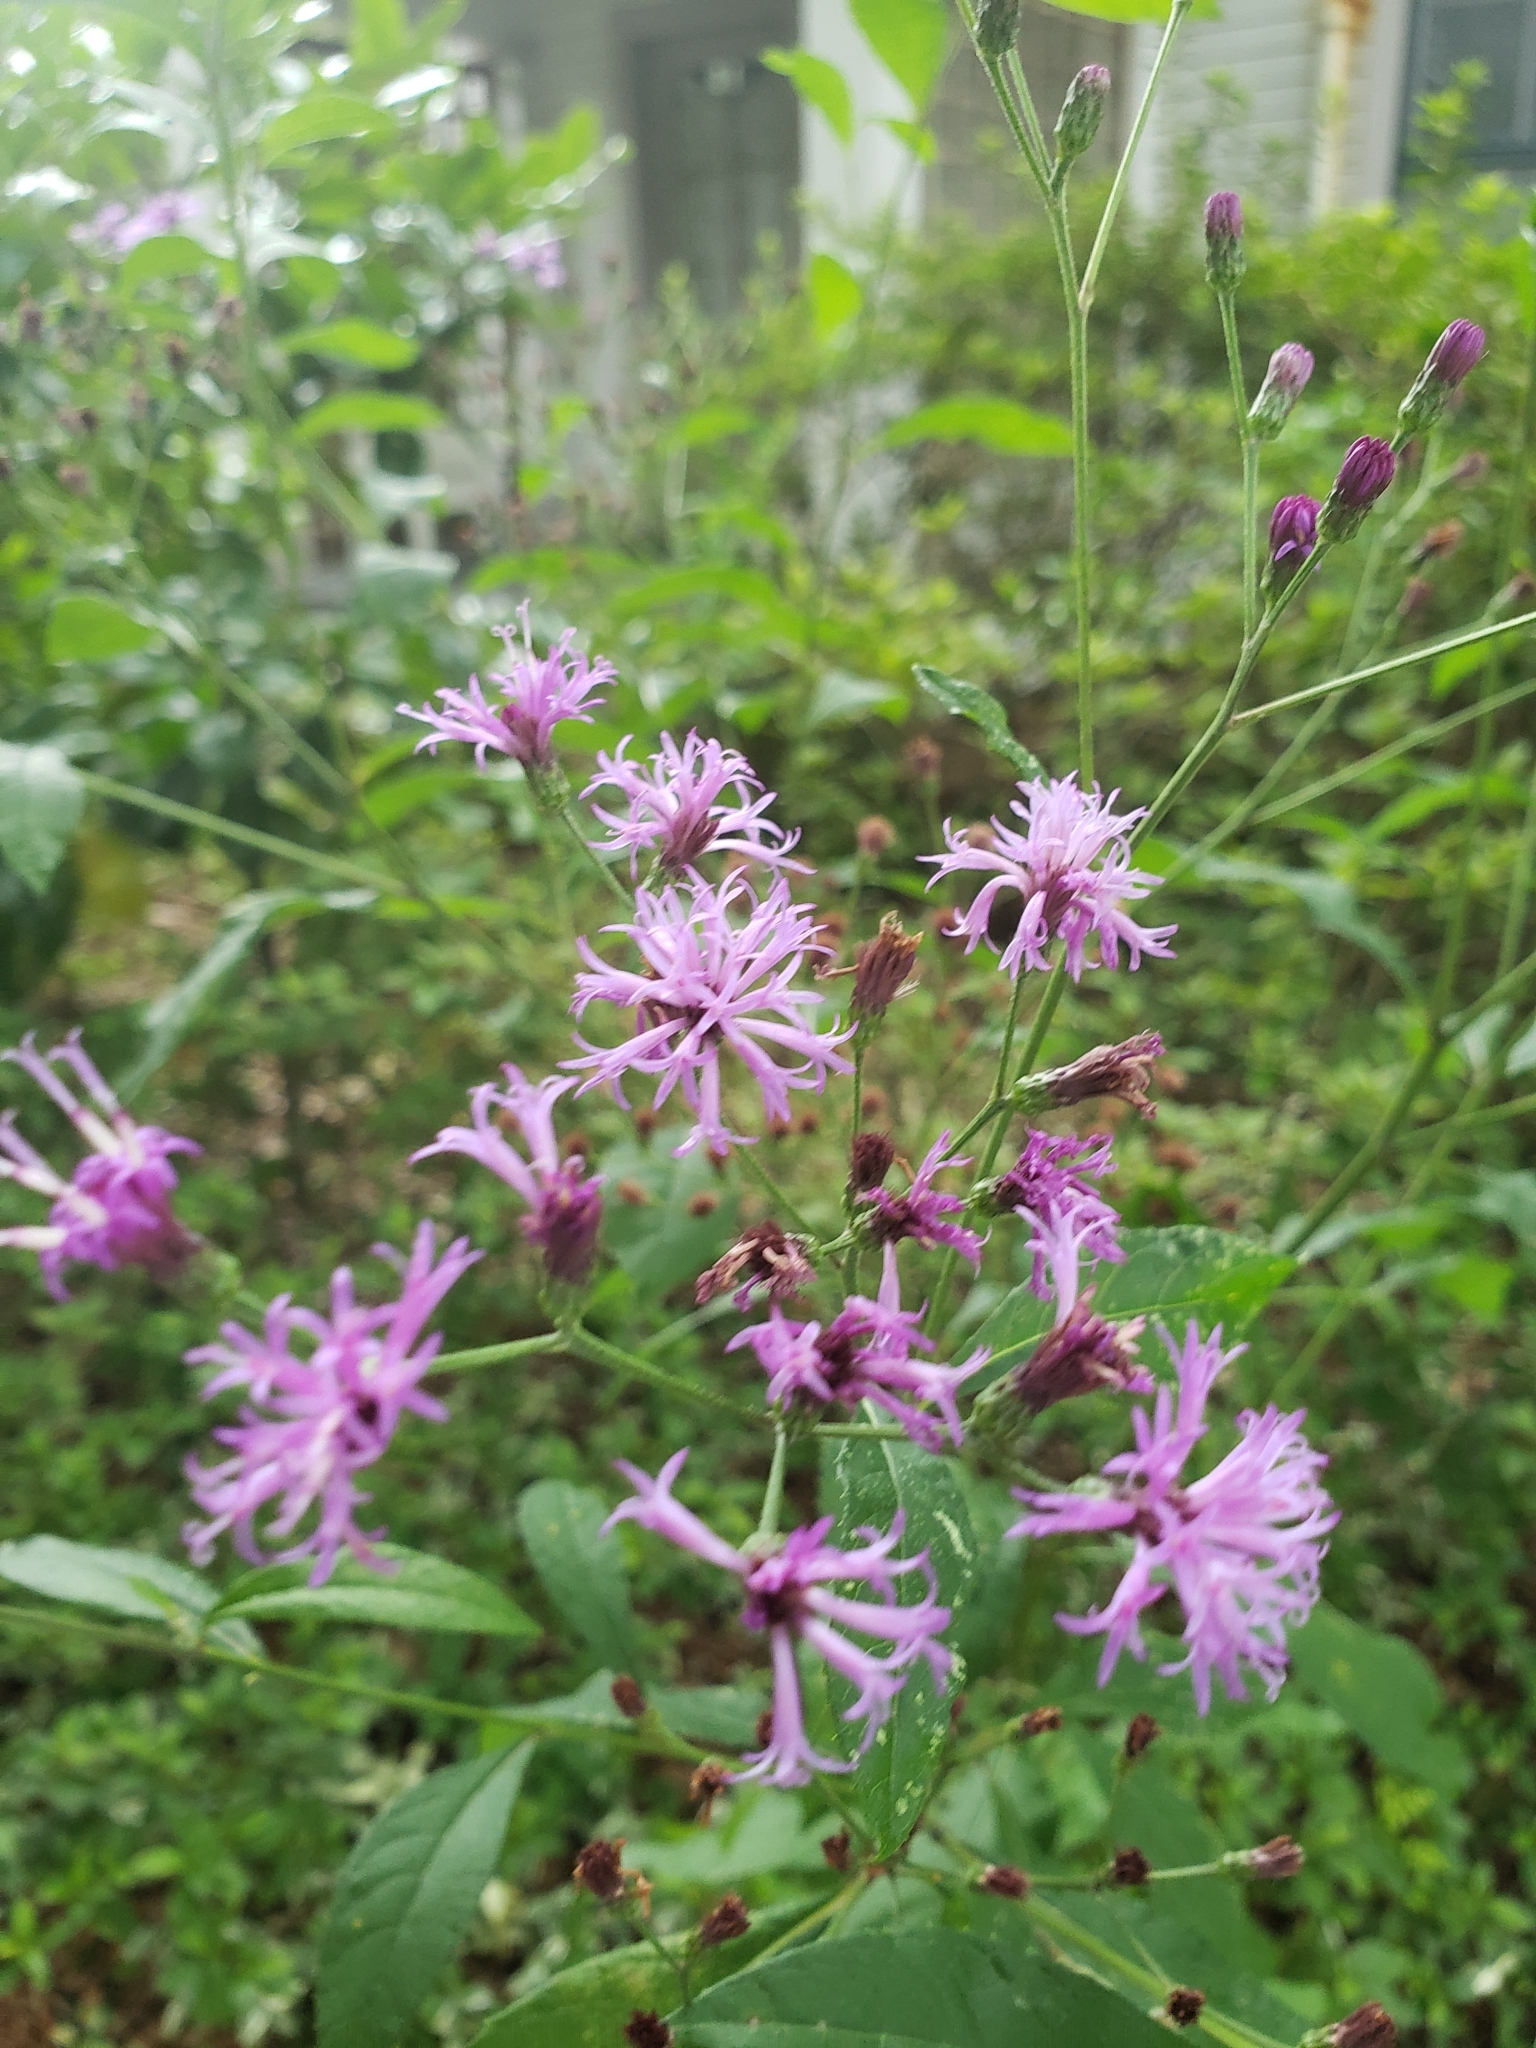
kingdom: Plantae
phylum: Tracheophyta
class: Magnoliopsida
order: Asterales
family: Asteraceae
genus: Vernonia
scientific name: Vernonia gigantea
